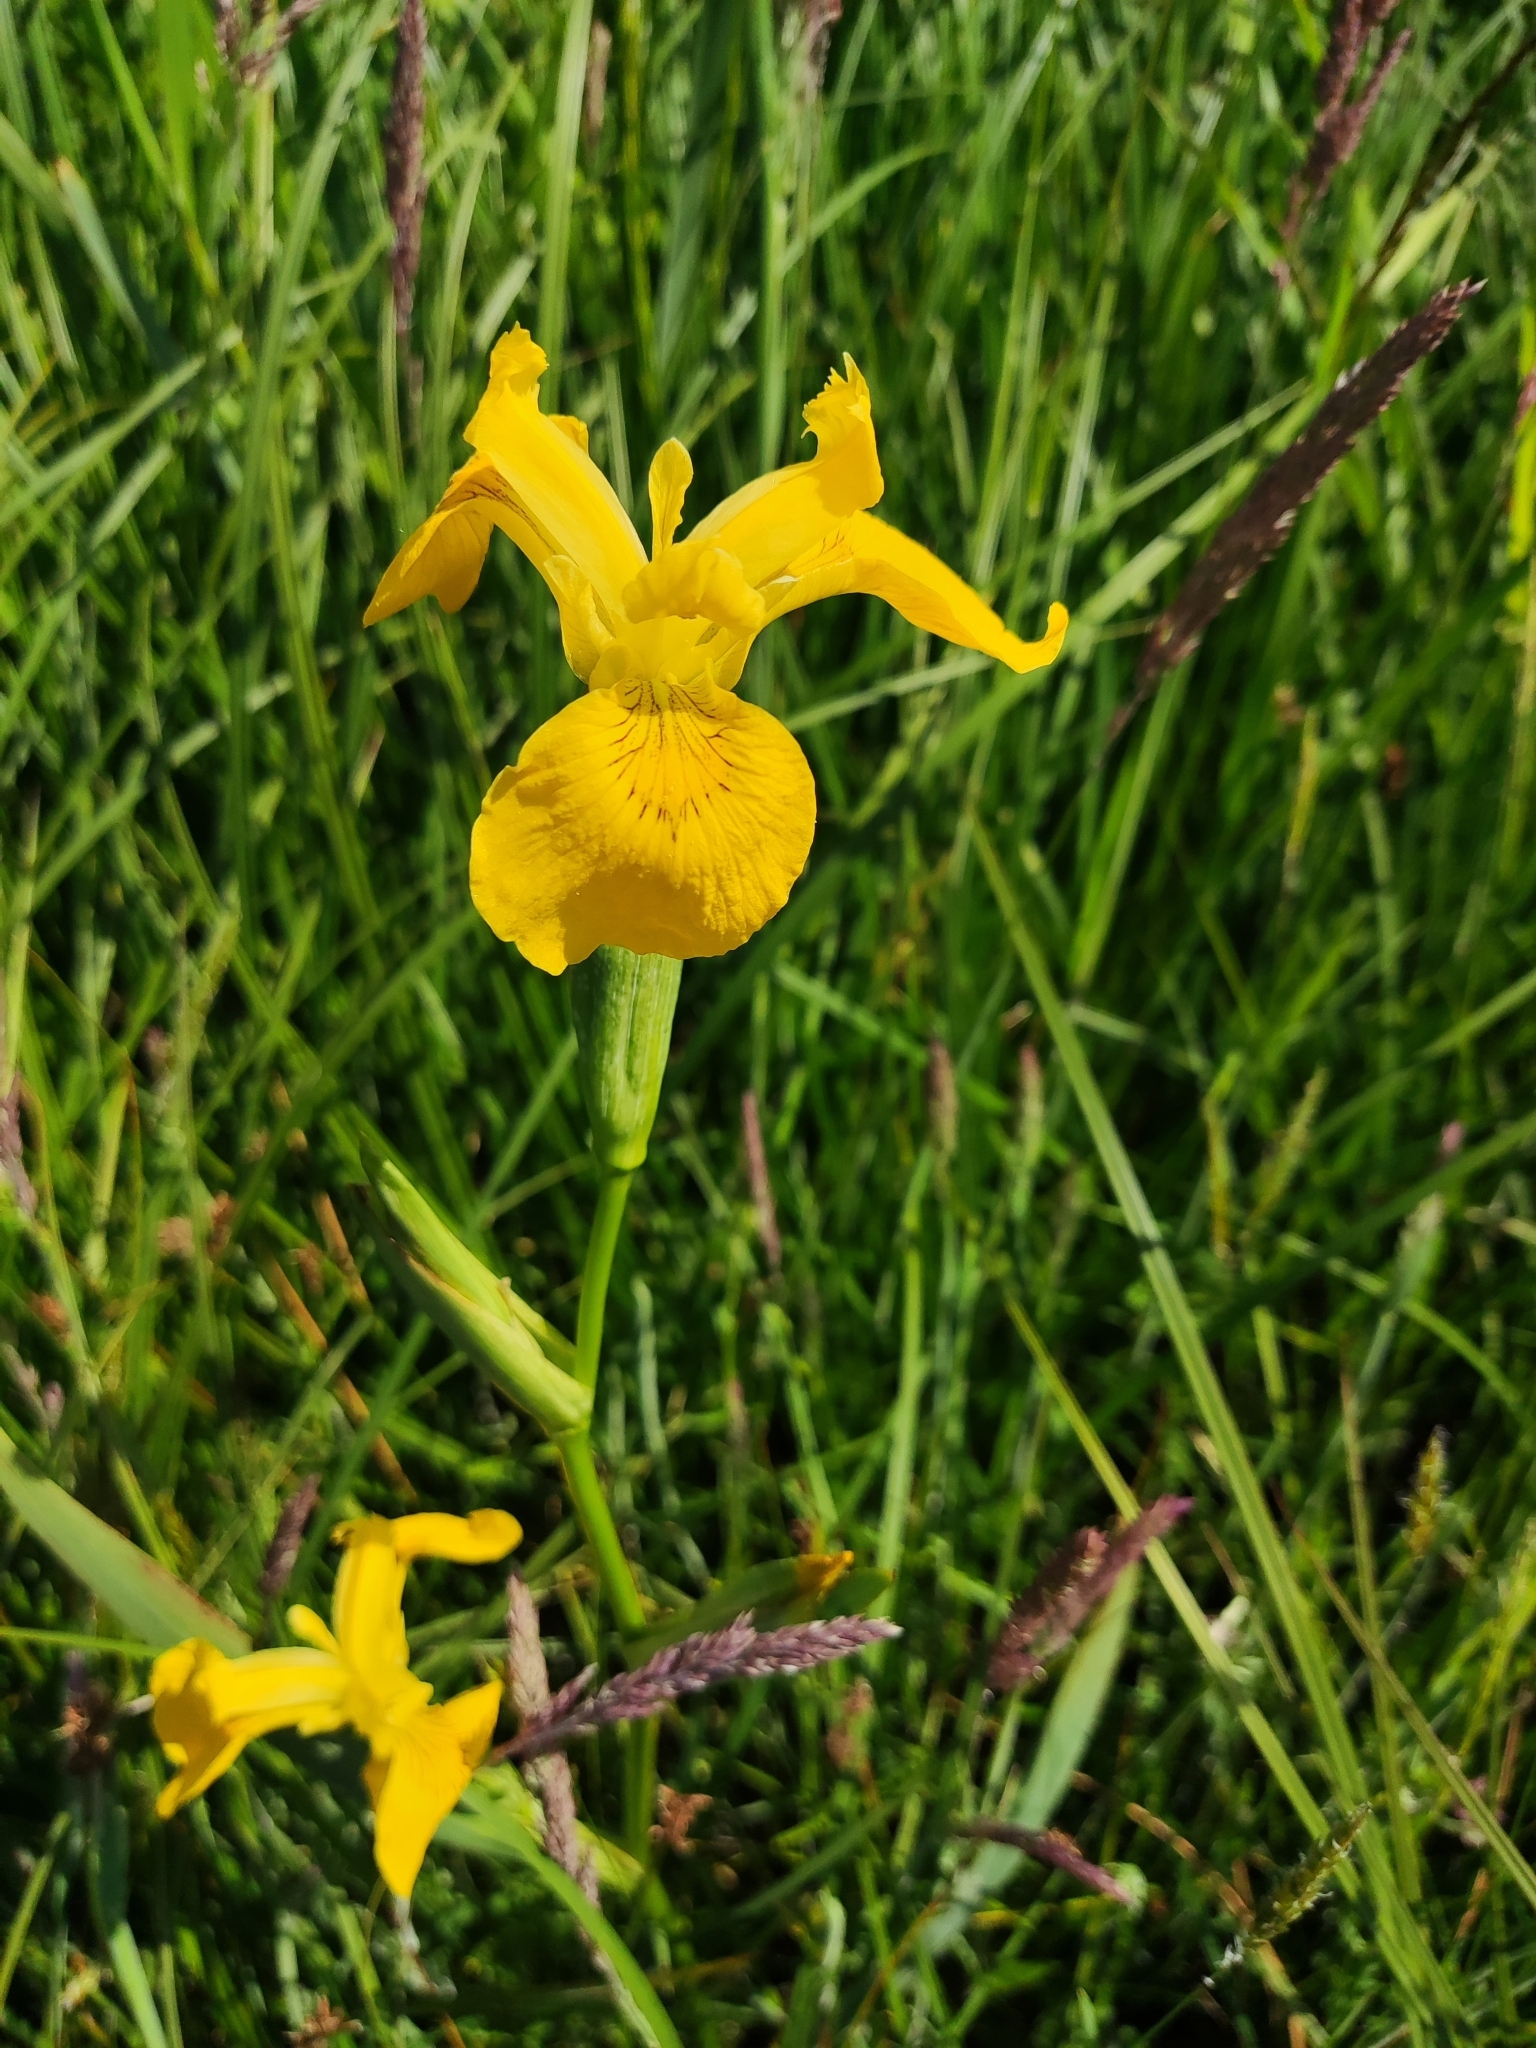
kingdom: Plantae
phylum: Tracheophyta
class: Liliopsida
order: Asparagales
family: Iridaceae
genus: Iris
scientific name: Iris pseudacorus
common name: Yellow flag
